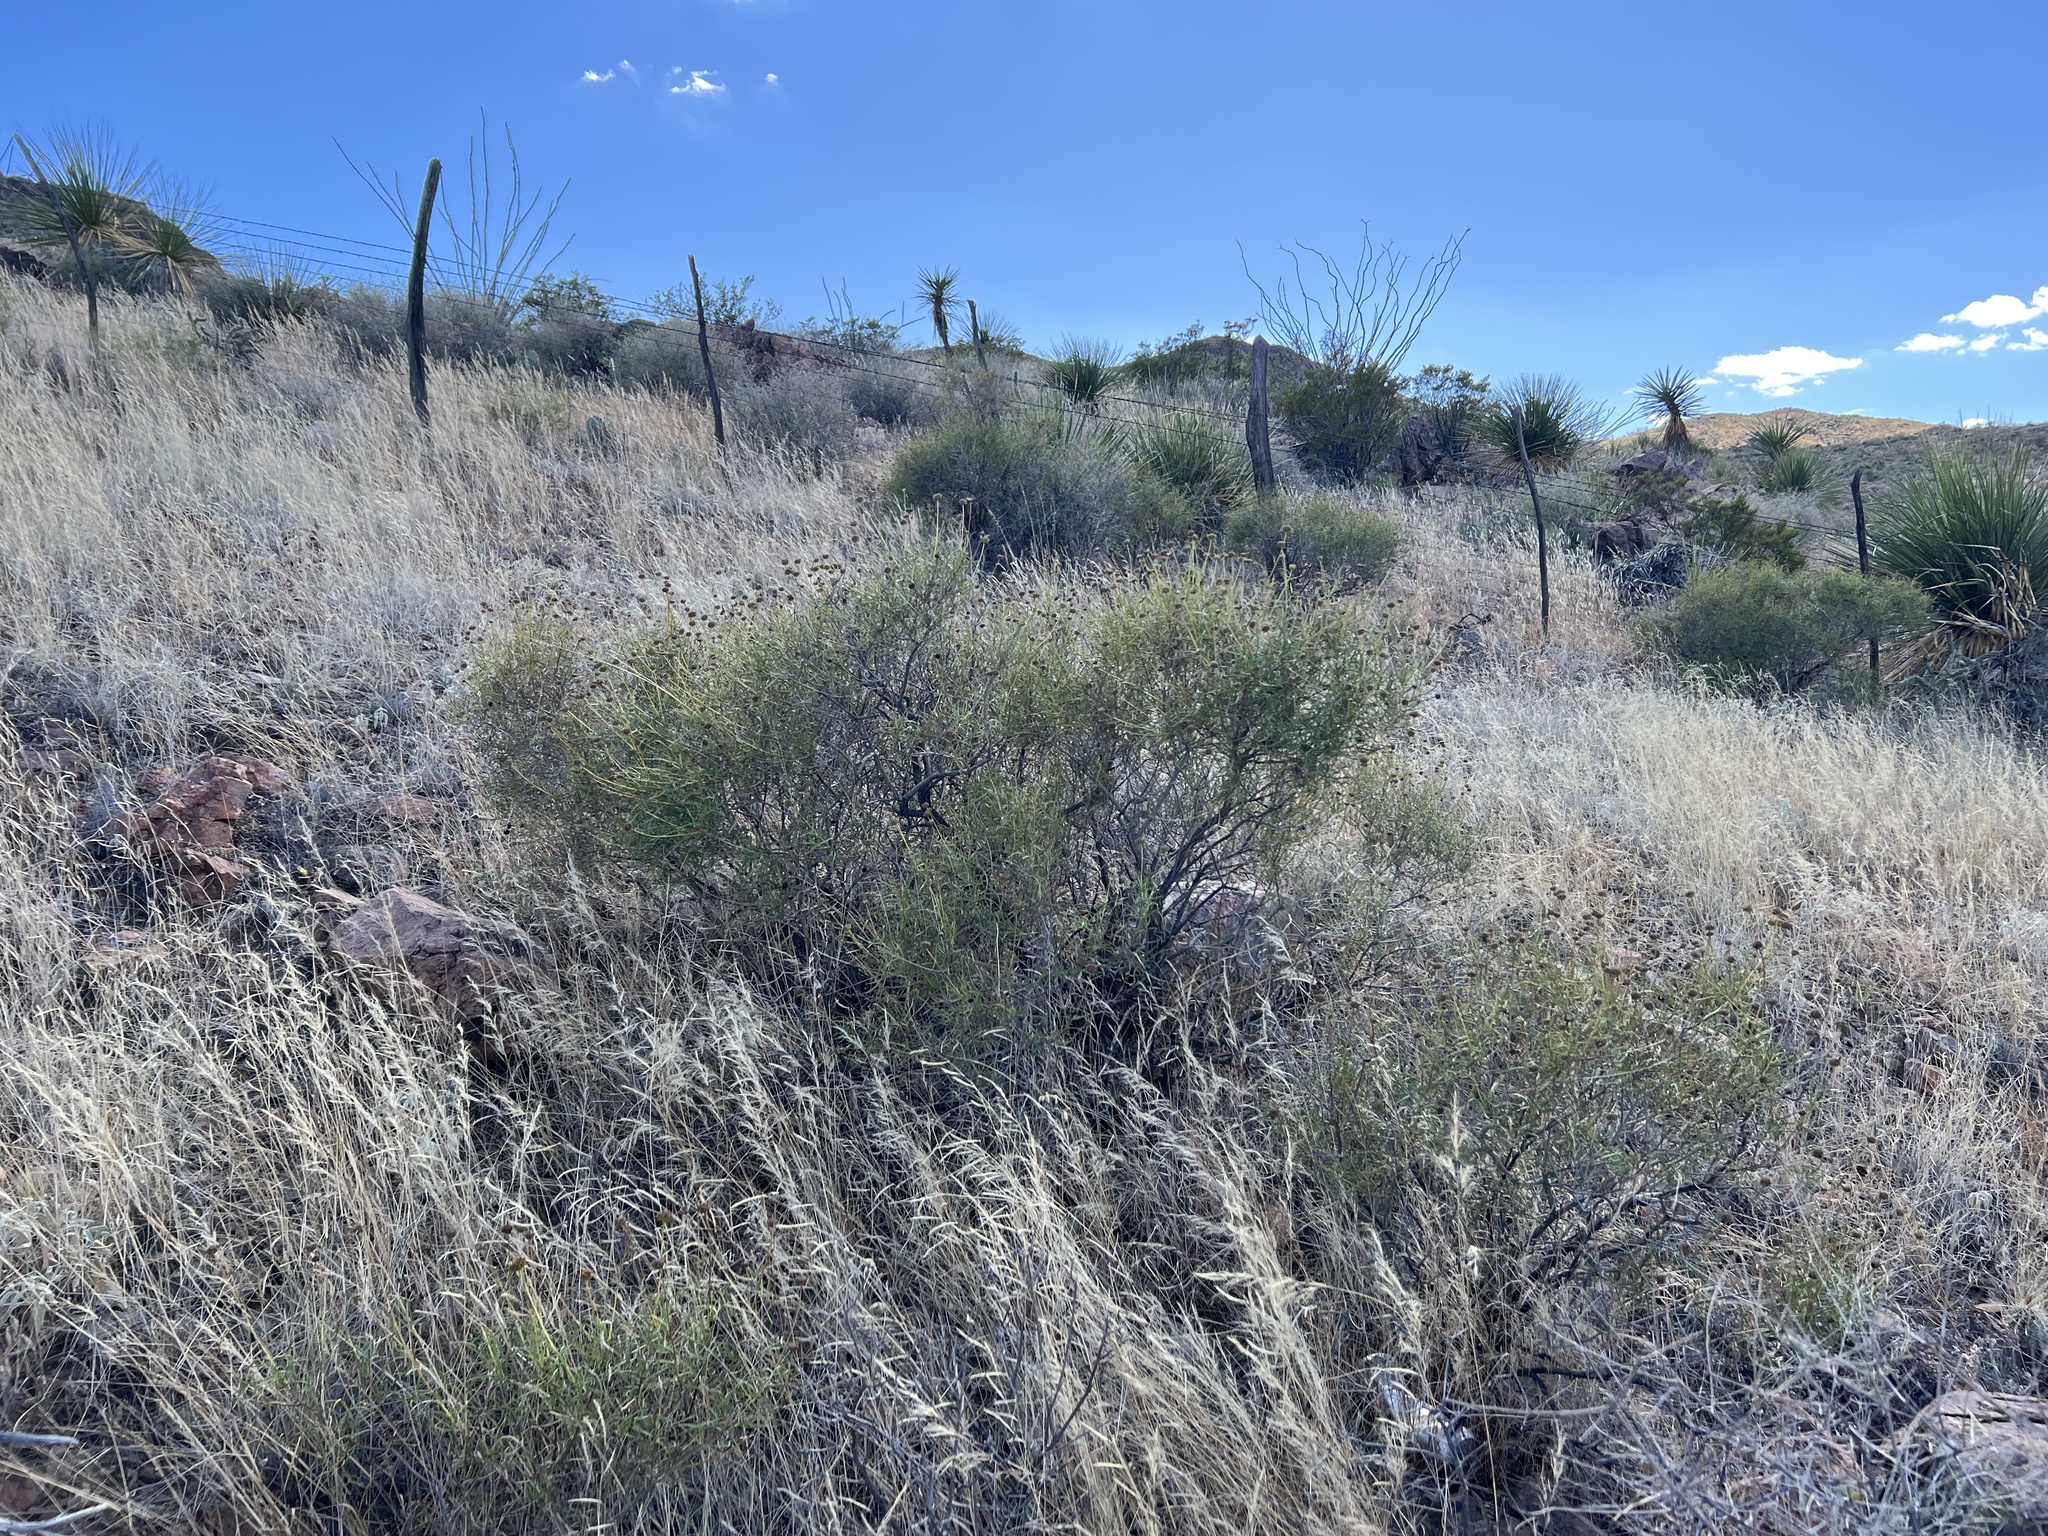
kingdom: Plantae
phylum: Tracheophyta
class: Magnoliopsida
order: Asterales
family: Asteraceae
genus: Sidneya
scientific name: Sidneya tenuifolia
